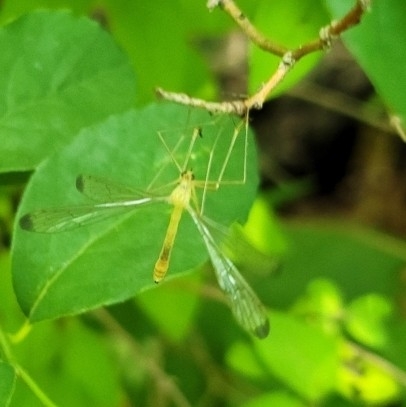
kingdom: Animalia
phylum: Arthropoda
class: Insecta
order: Mecoptera
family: Bittacidae
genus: Hylobittacus
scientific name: Hylobittacus apicalis
